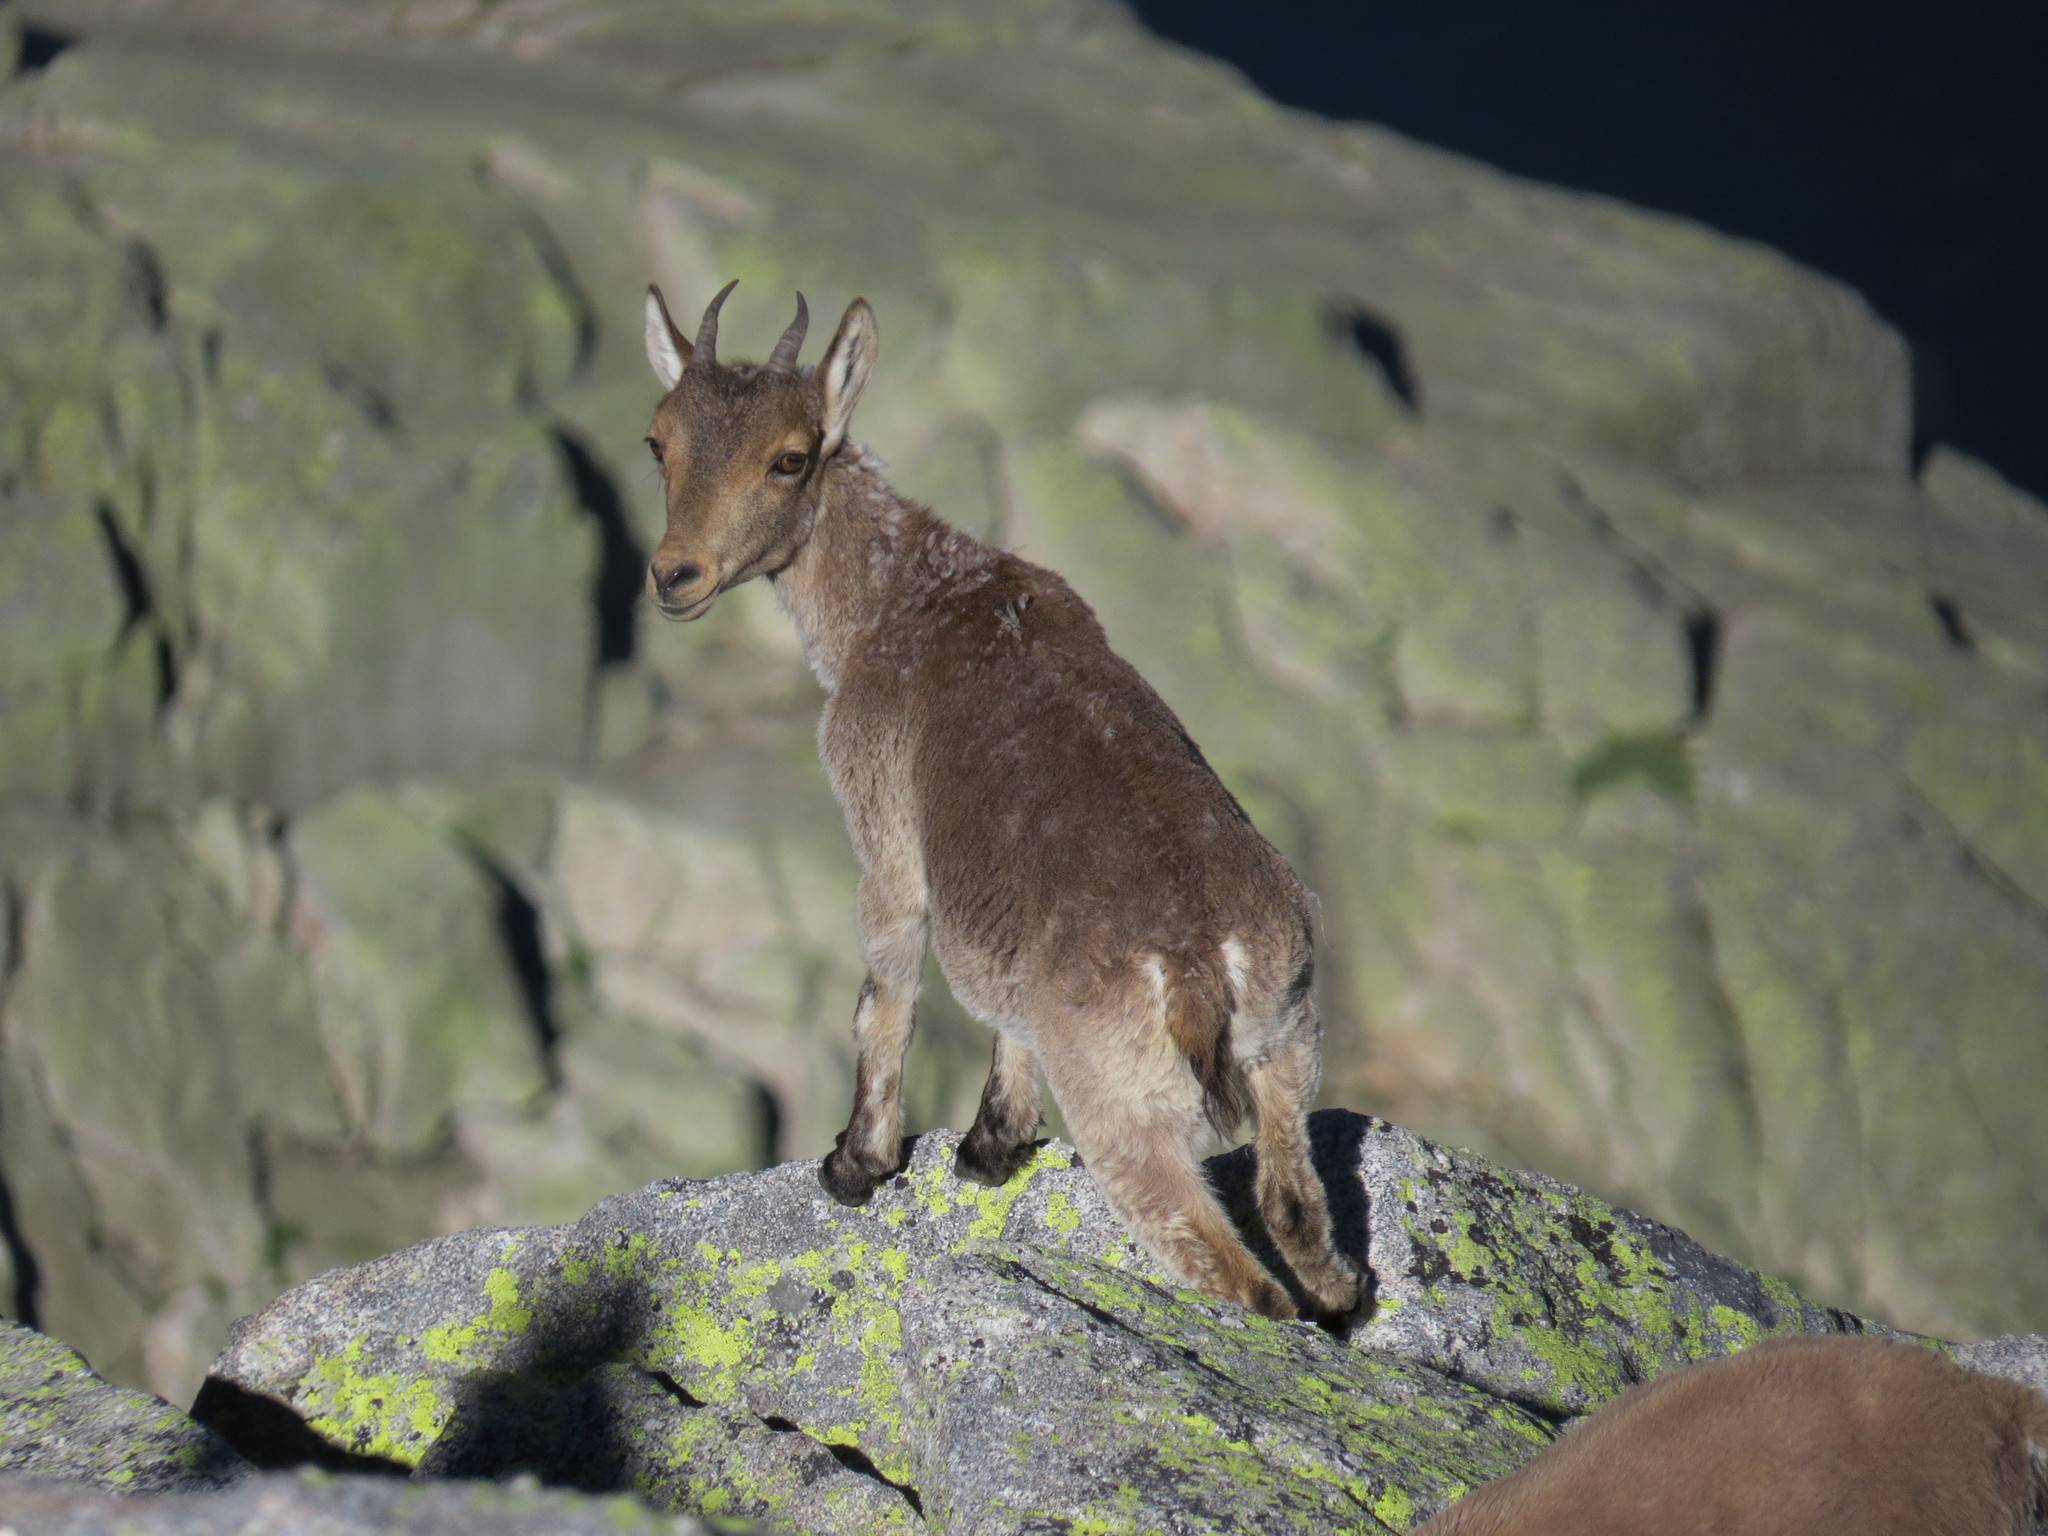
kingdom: Animalia
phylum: Chordata
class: Mammalia
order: Artiodactyla
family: Bovidae
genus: Capra
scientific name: Capra pyrenaica
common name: Spanish ibex
